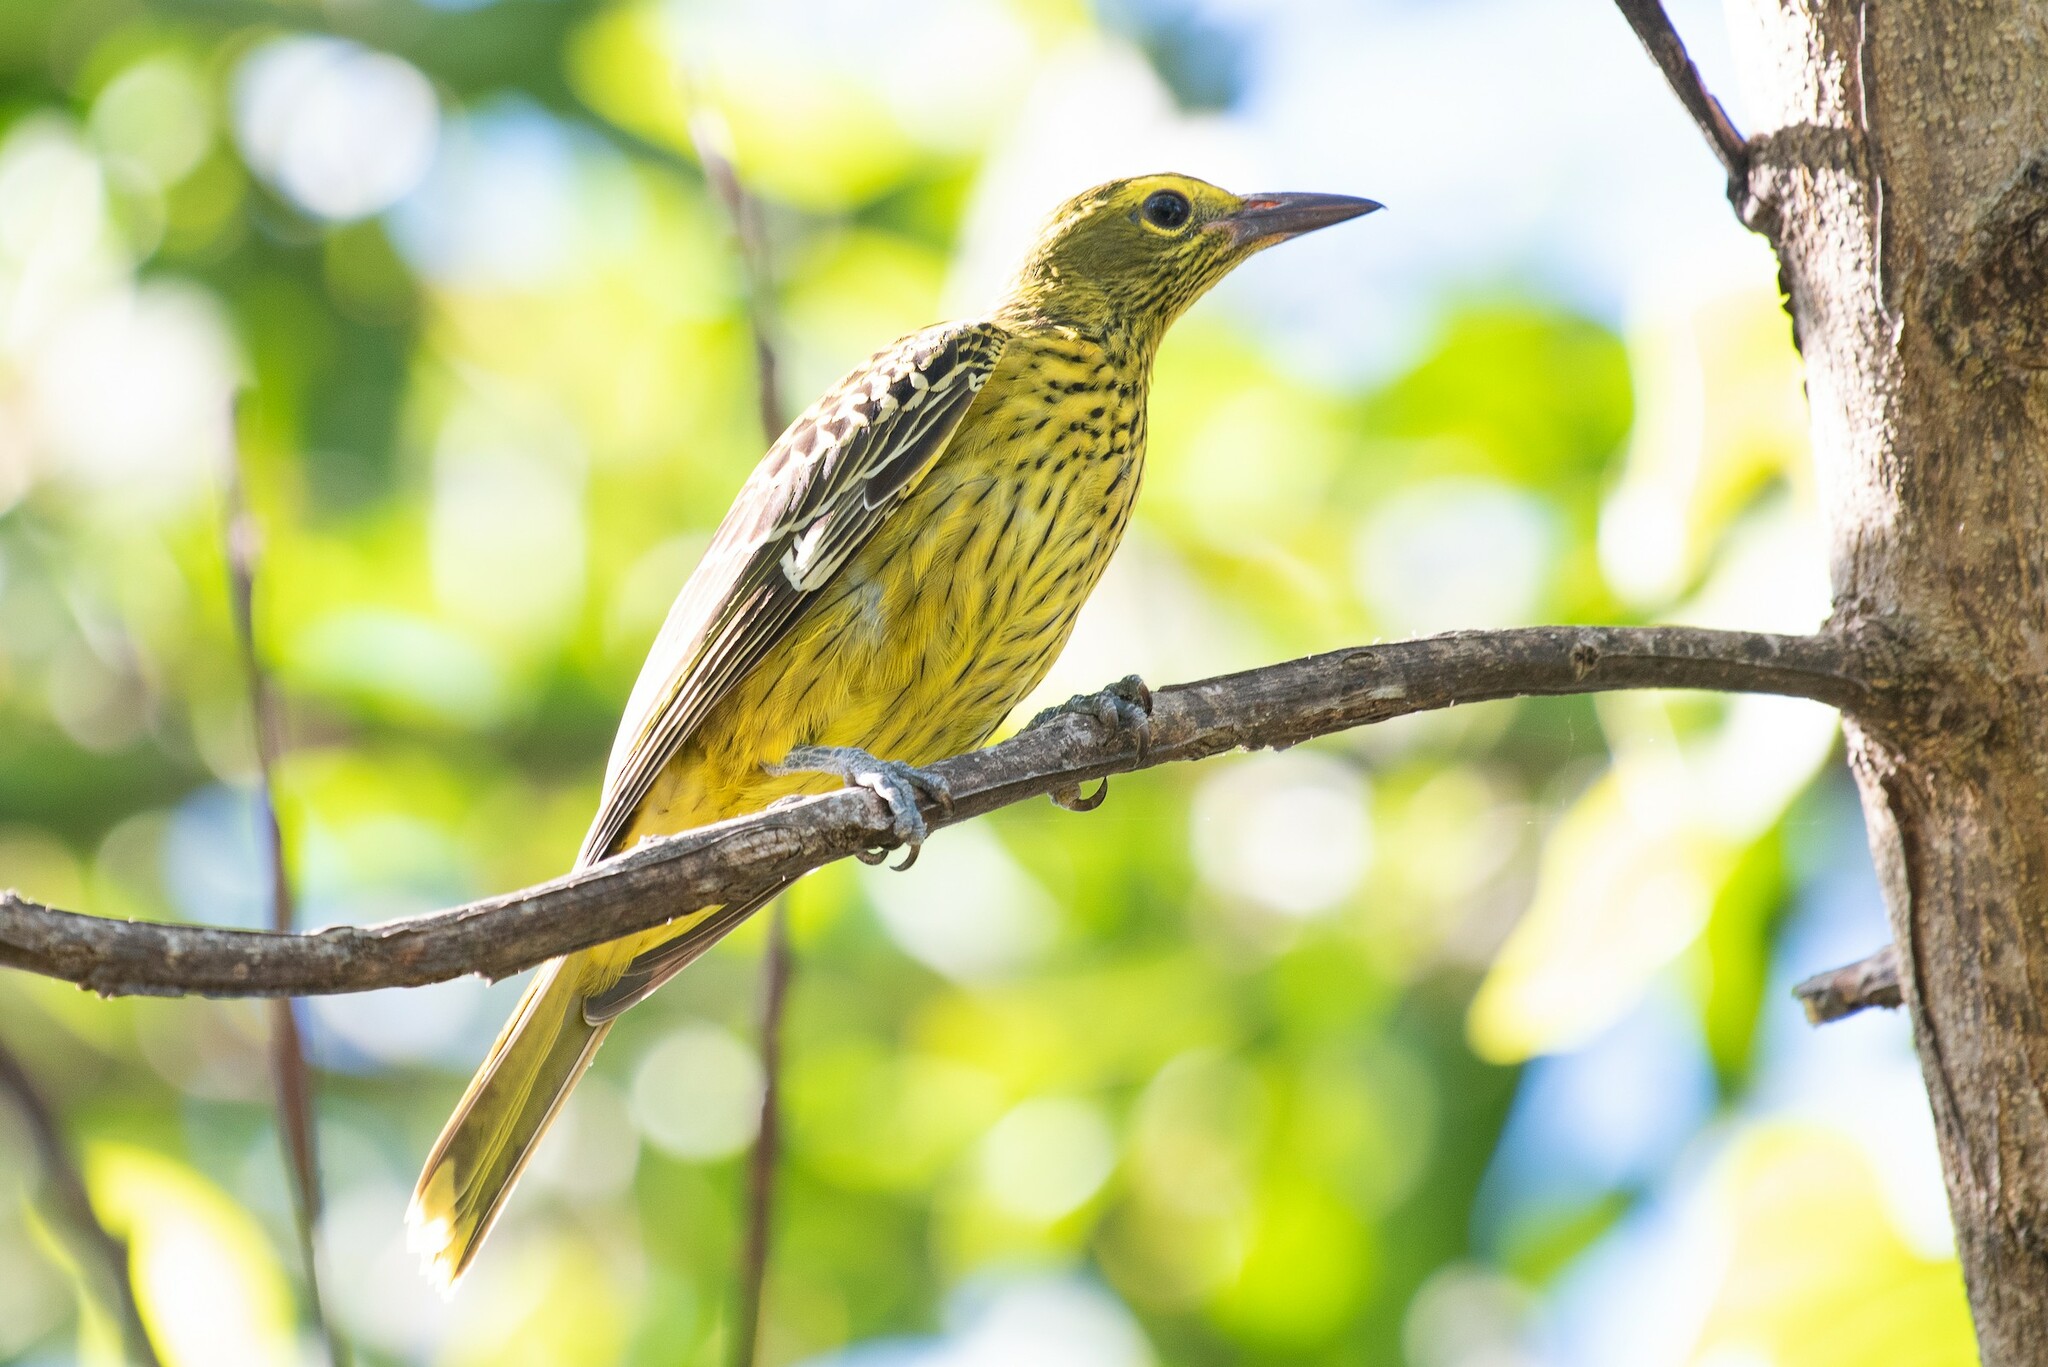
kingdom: Animalia
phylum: Chordata
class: Aves
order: Passeriformes
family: Oriolidae
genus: Oriolus
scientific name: Oriolus flavocinctus
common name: Green oriole
